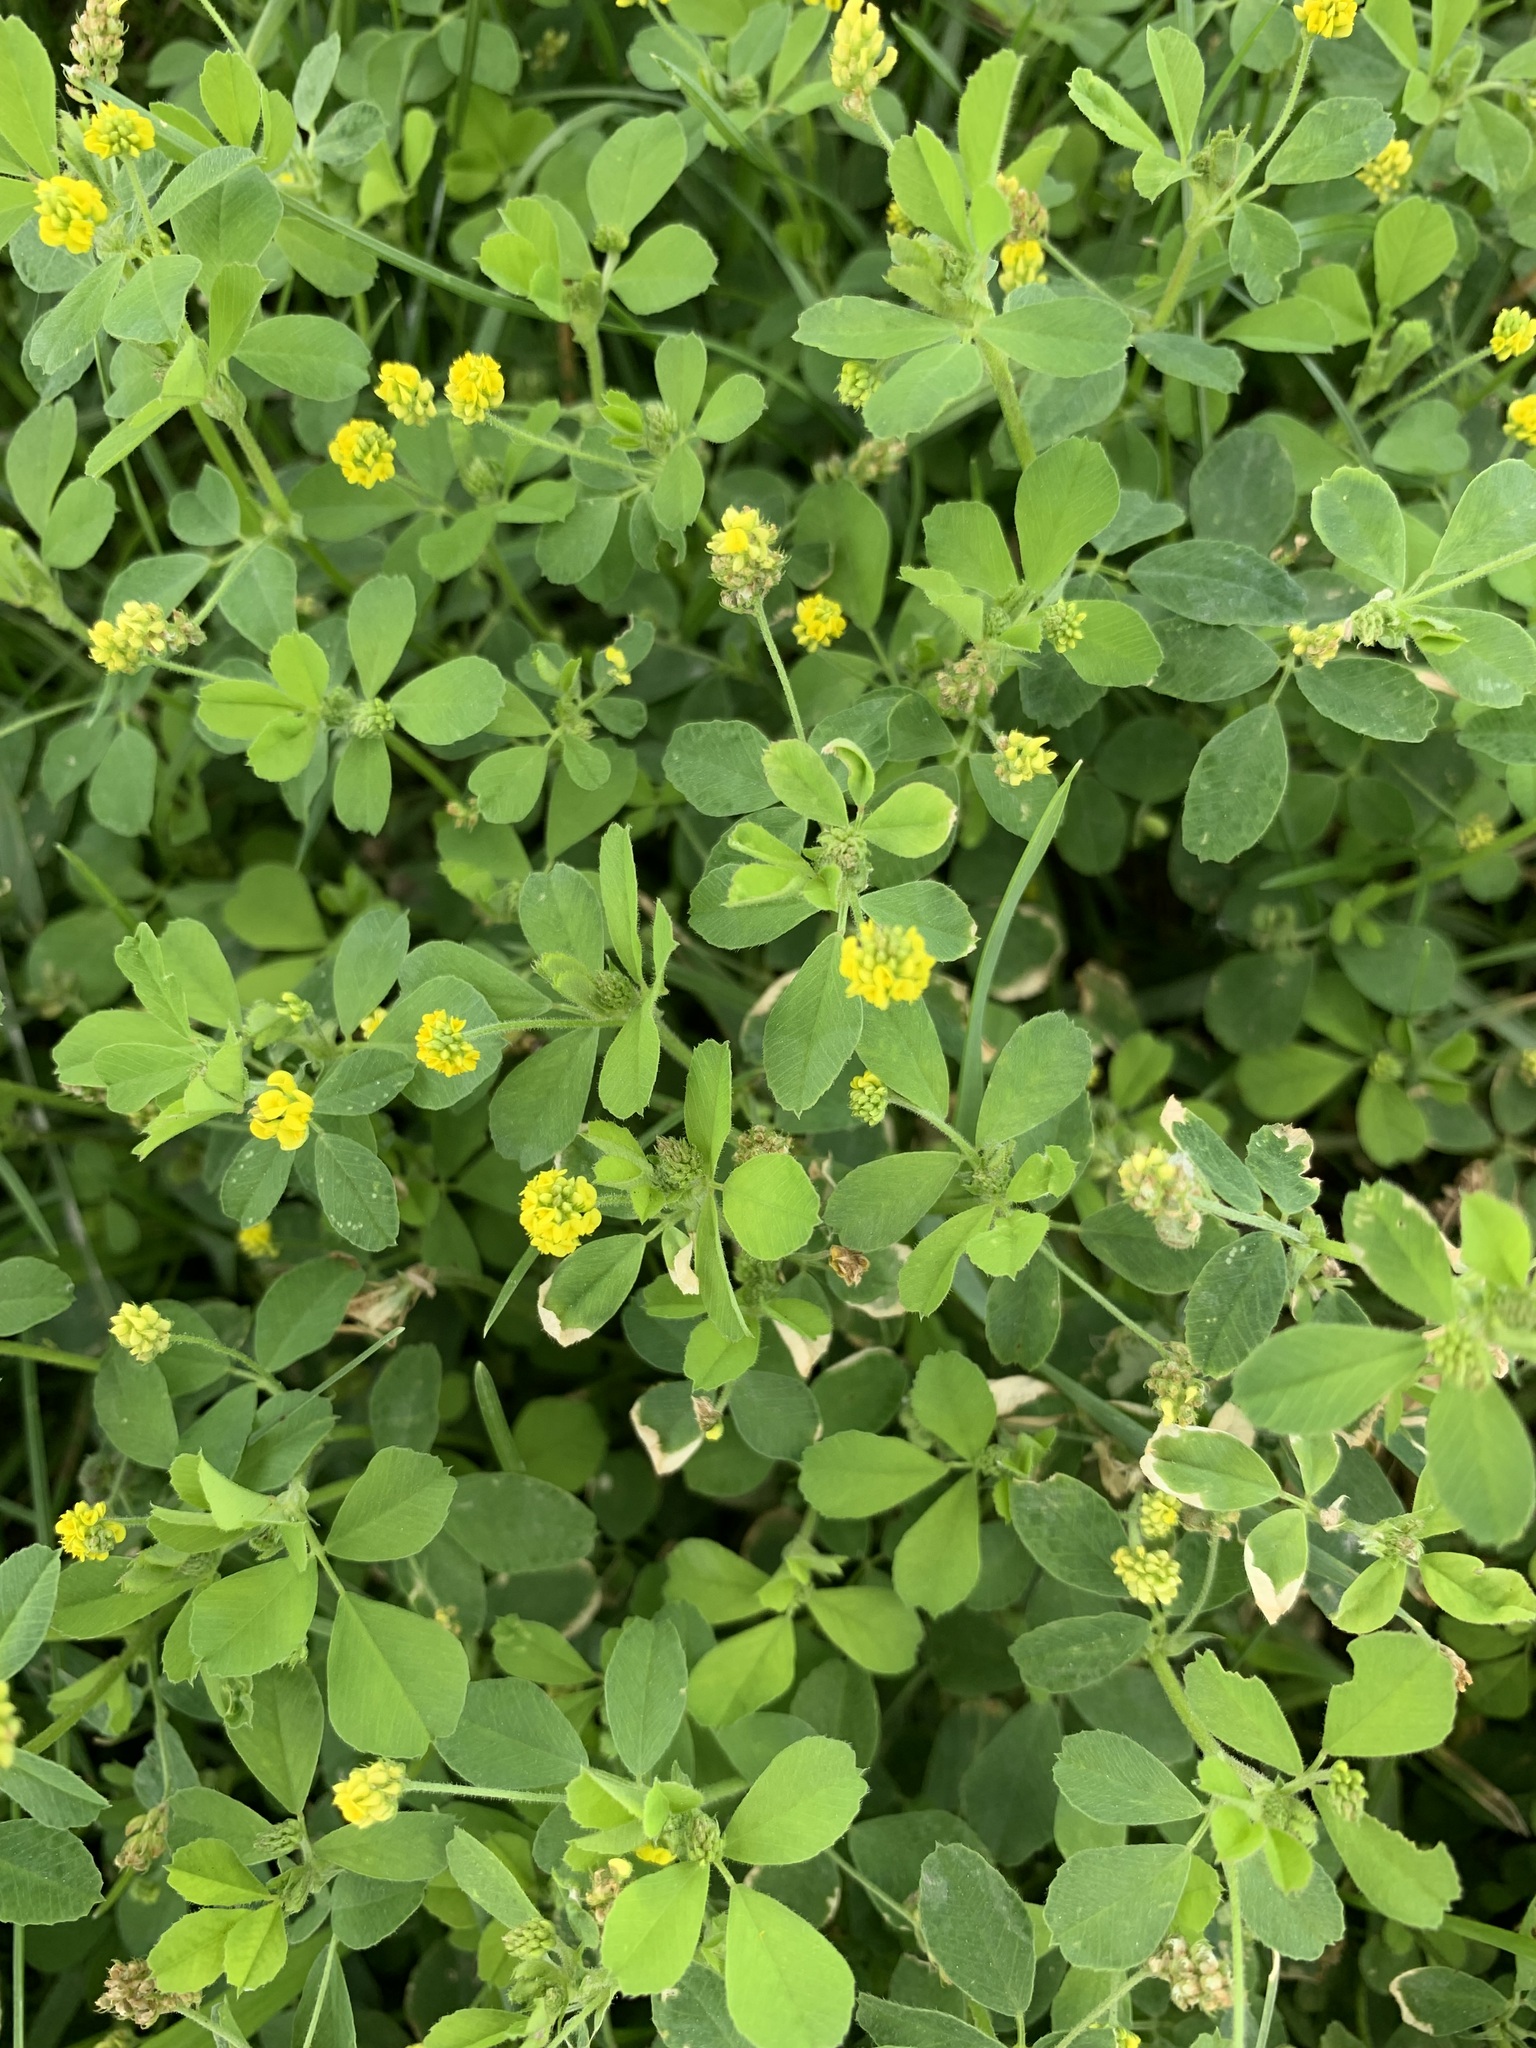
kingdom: Plantae
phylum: Tracheophyta
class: Magnoliopsida
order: Fabales
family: Fabaceae
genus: Medicago
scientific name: Medicago lupulina
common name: Black medick
